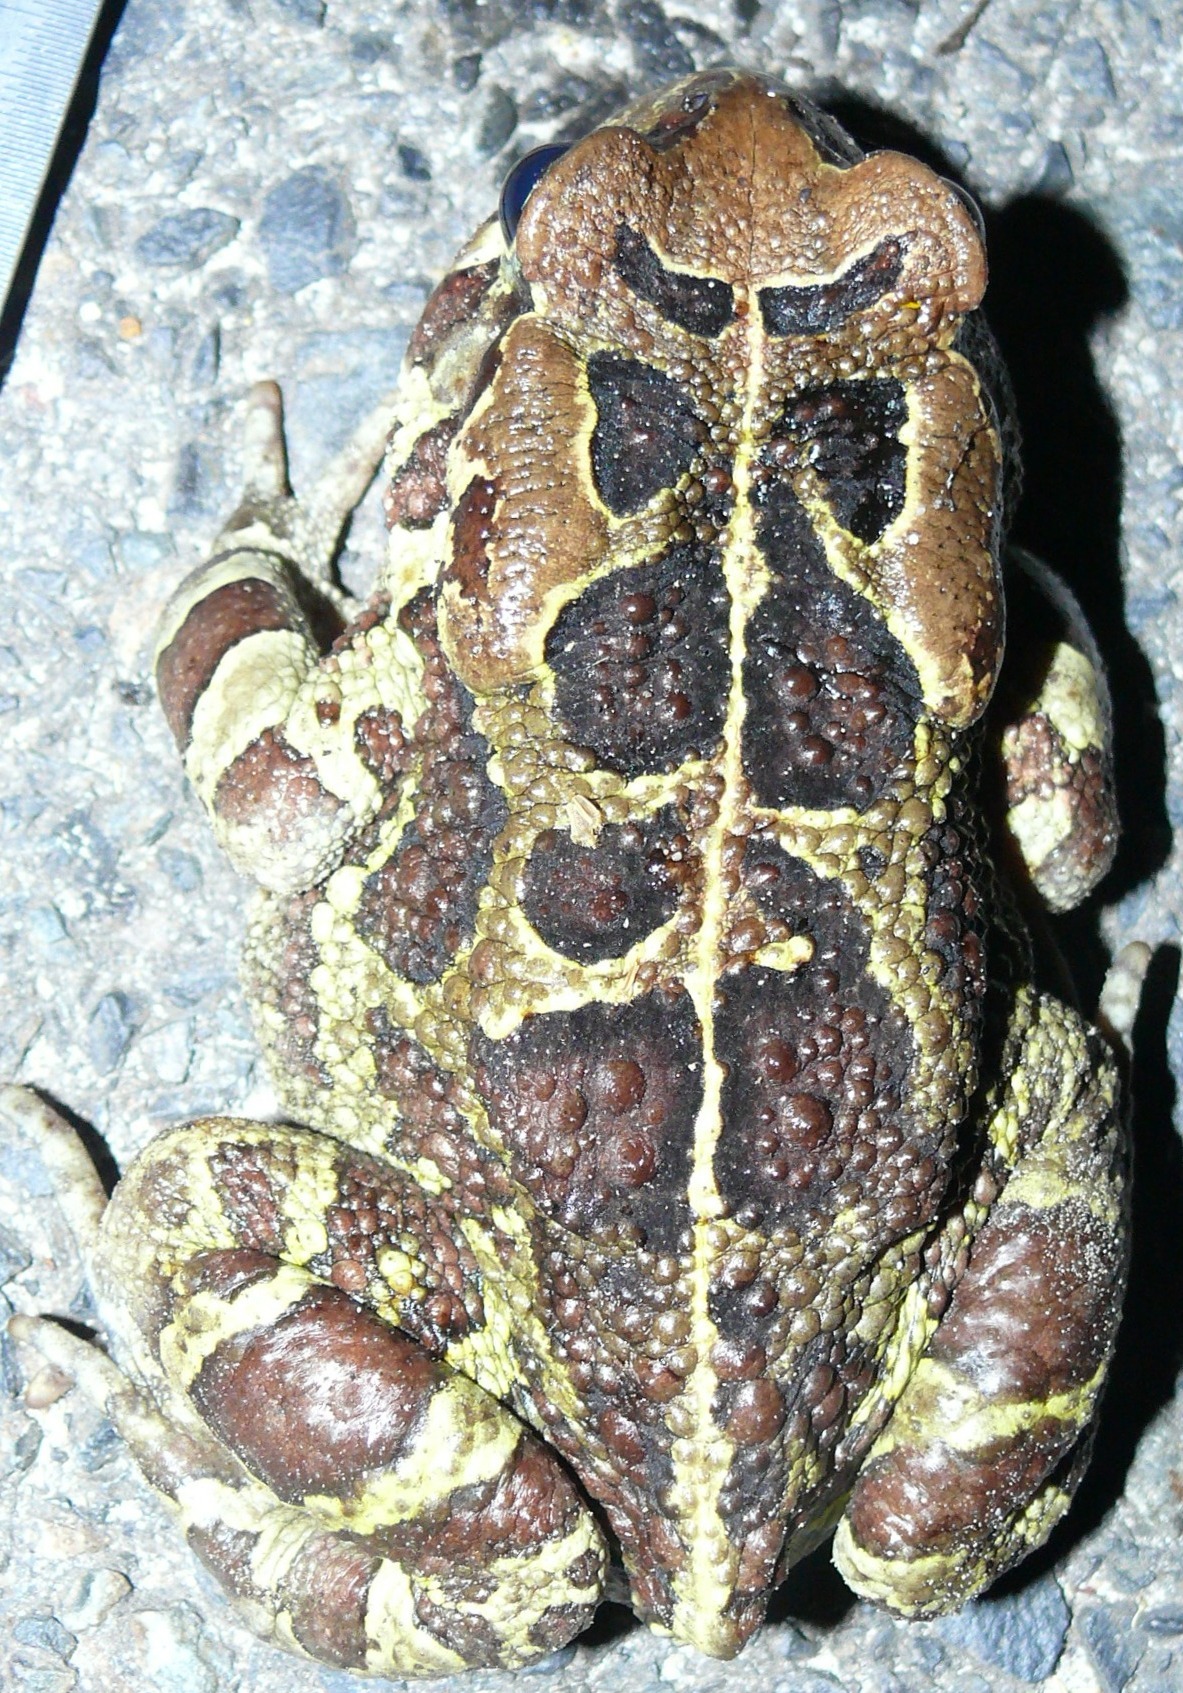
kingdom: Animalia
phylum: Chordata
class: Amphibia
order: Anura
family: Bufonidae
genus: Sclerophrys
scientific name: Sclerophrys pantherina
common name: Panther toad
